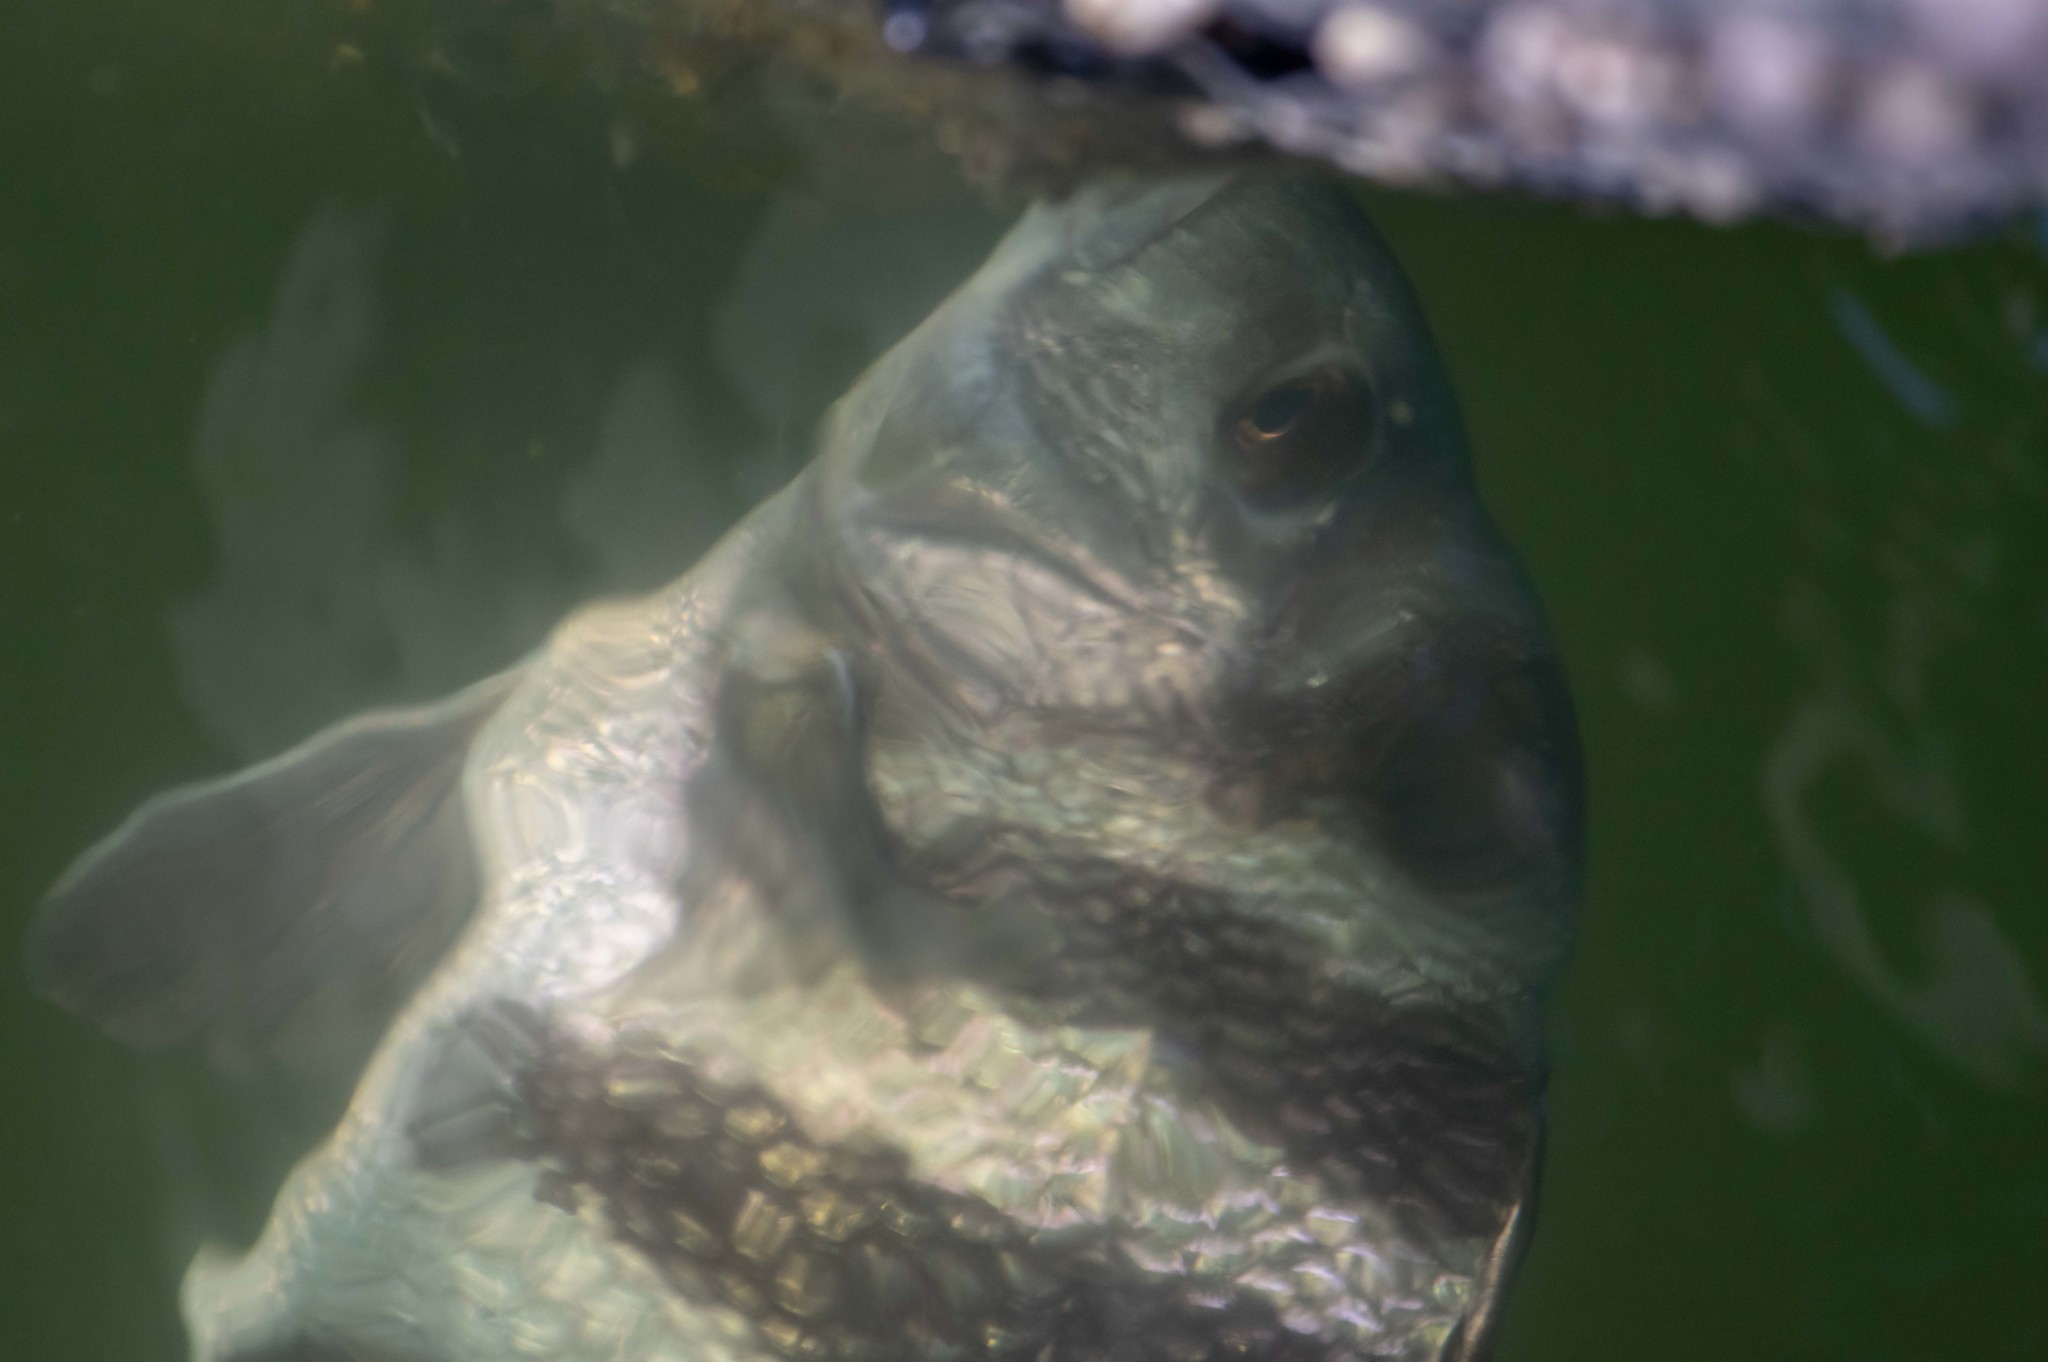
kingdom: Animalia
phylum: Chordata
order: Perciformes
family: Sparidae
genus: Archosargus
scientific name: Archosargus probatocephalus
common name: Sheepshead
